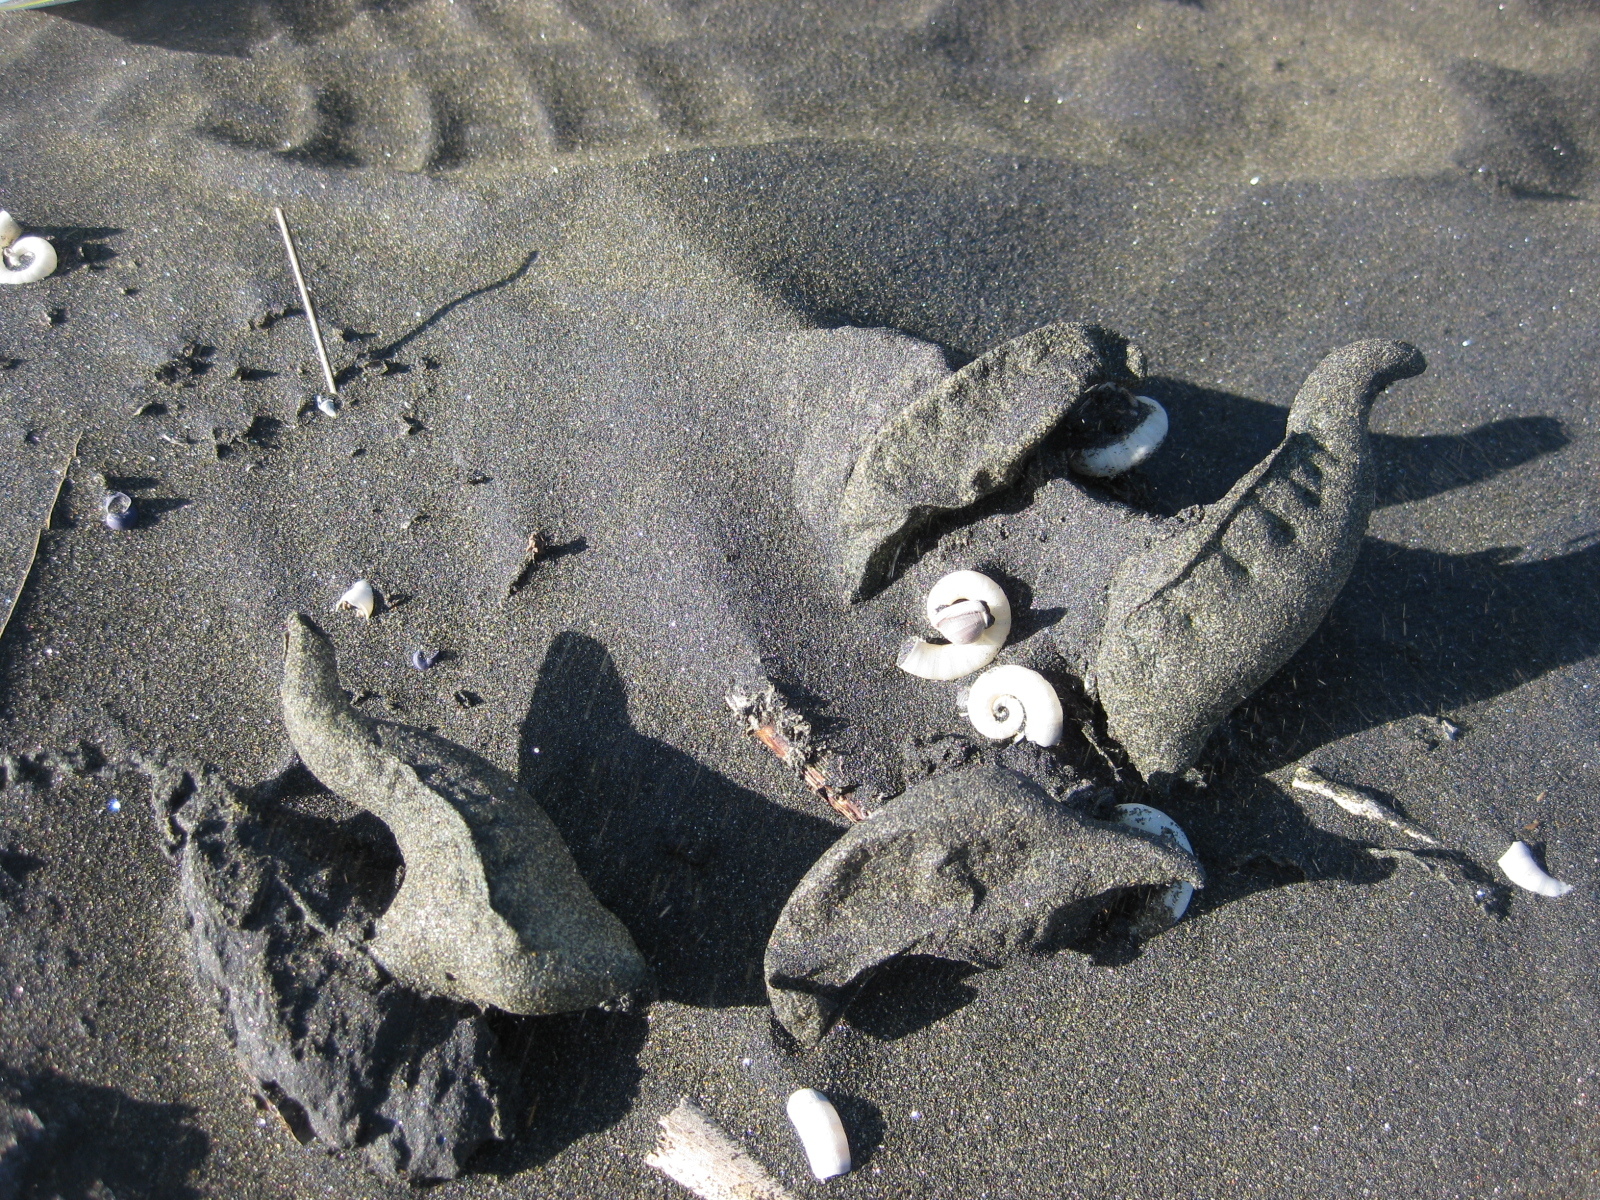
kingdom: Animalia
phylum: Cnidaria
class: Hydrozoa
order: Siphonophorae
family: Physaliidae
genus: Physalia
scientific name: Physalia physalis
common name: Portuguese man-of-war
